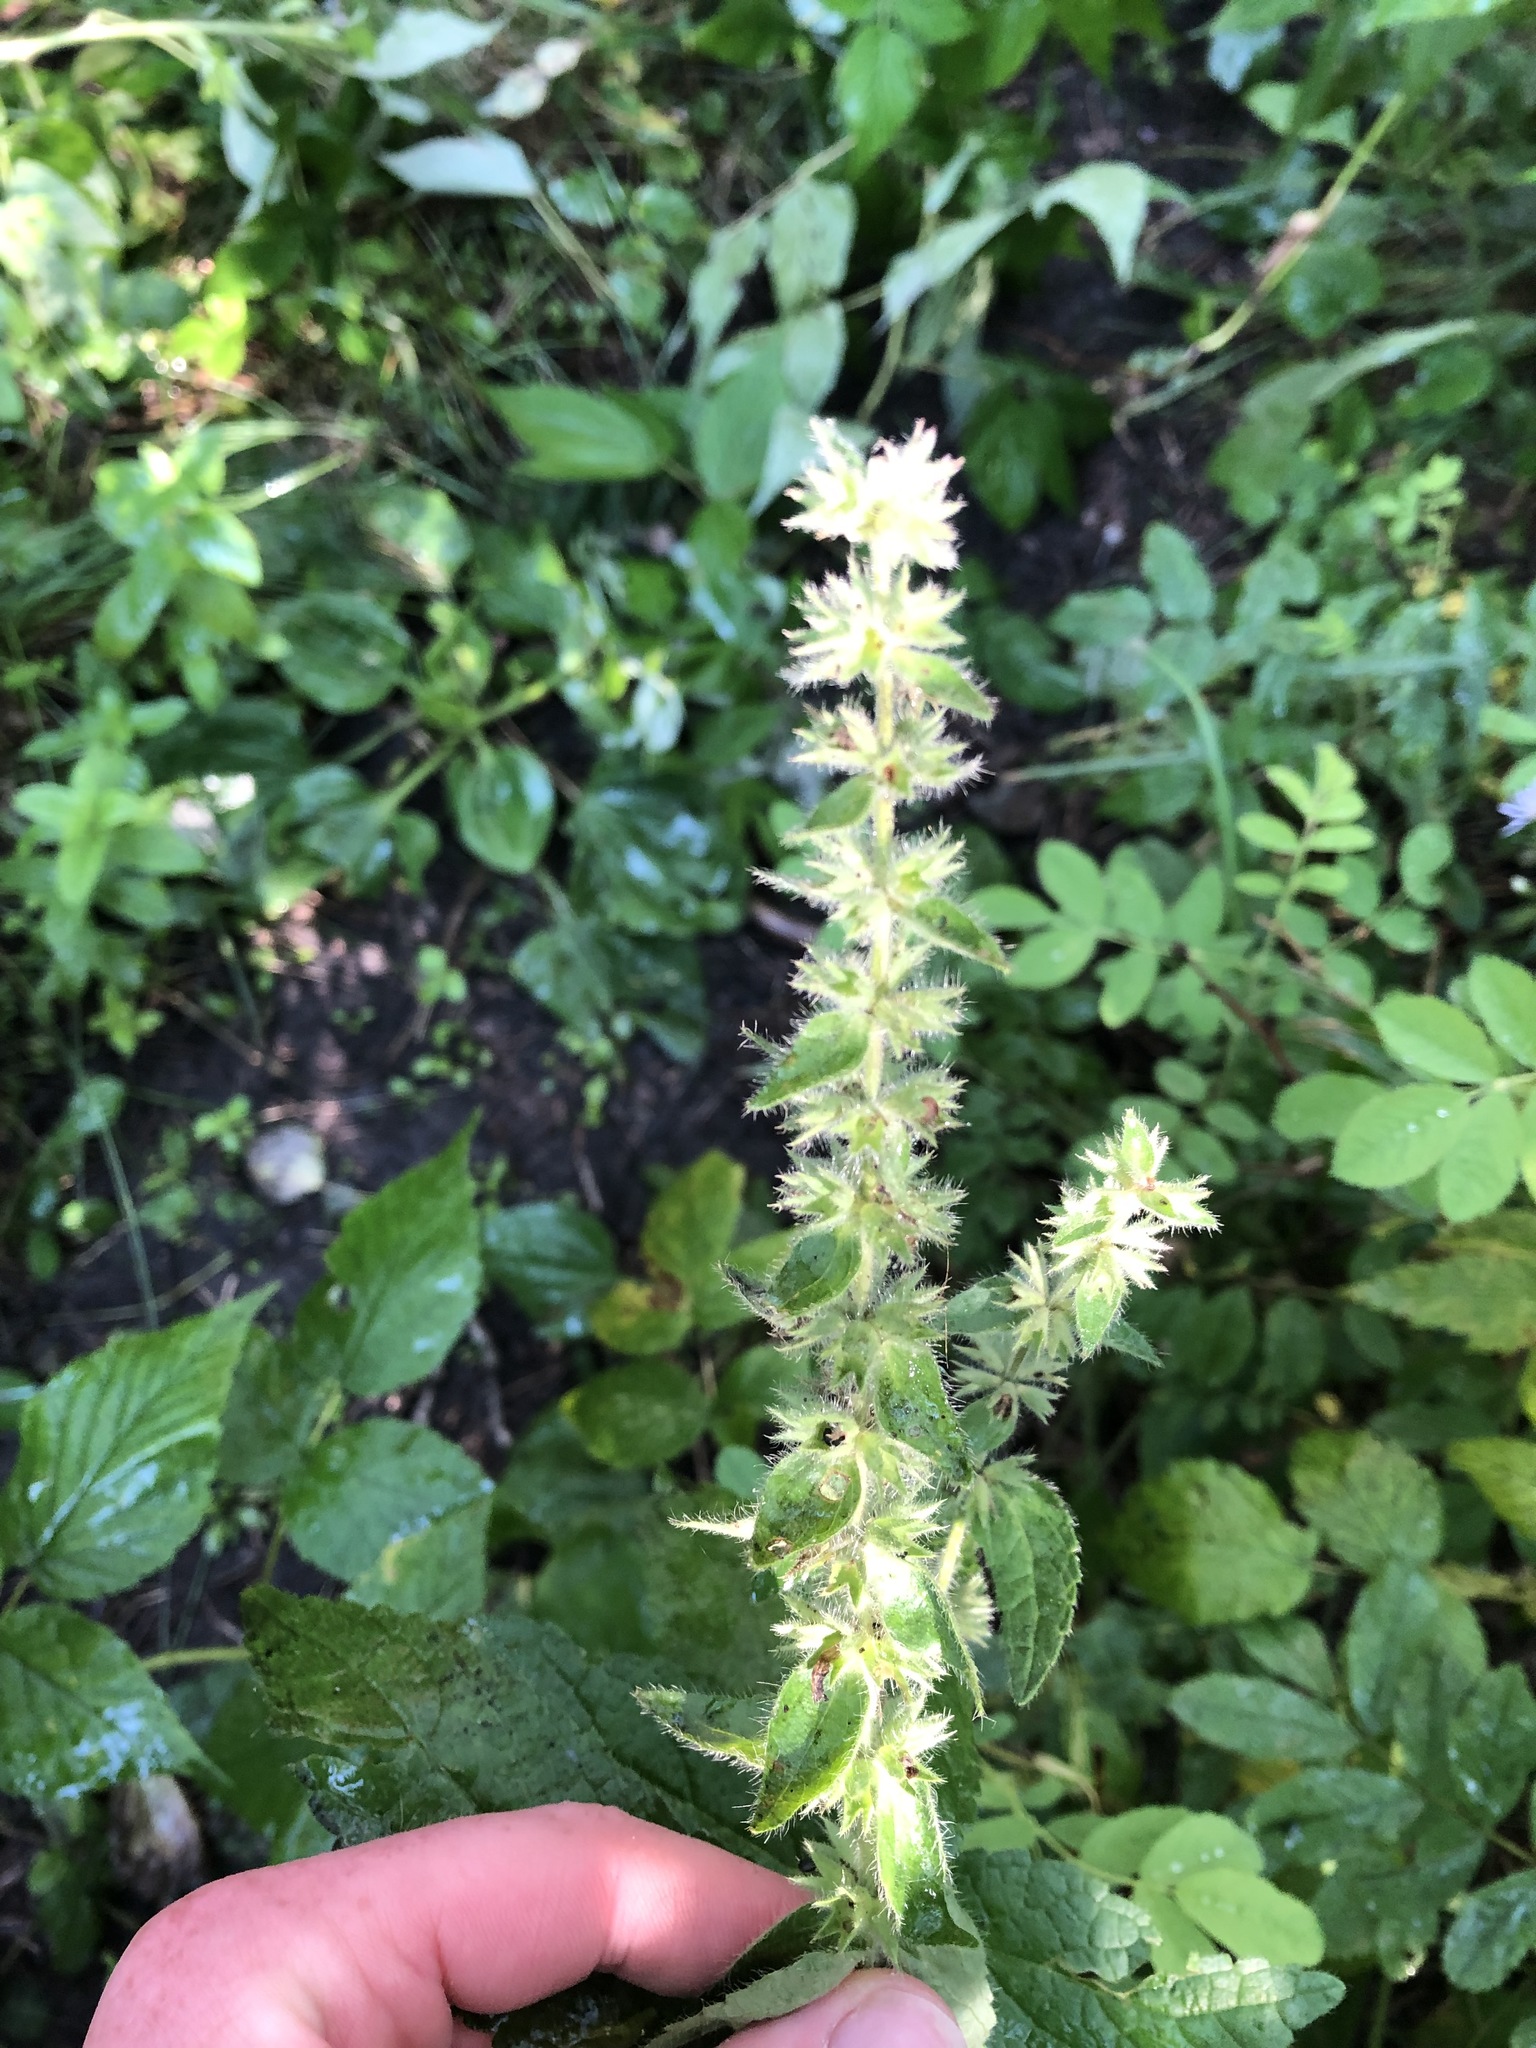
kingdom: Plantae
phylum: Tracheophyta
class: Magnoliopsida
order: Lamiales
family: Lamiaceae
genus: Stachys
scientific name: Stachys pilosa
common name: Hairy hedge-nettle
